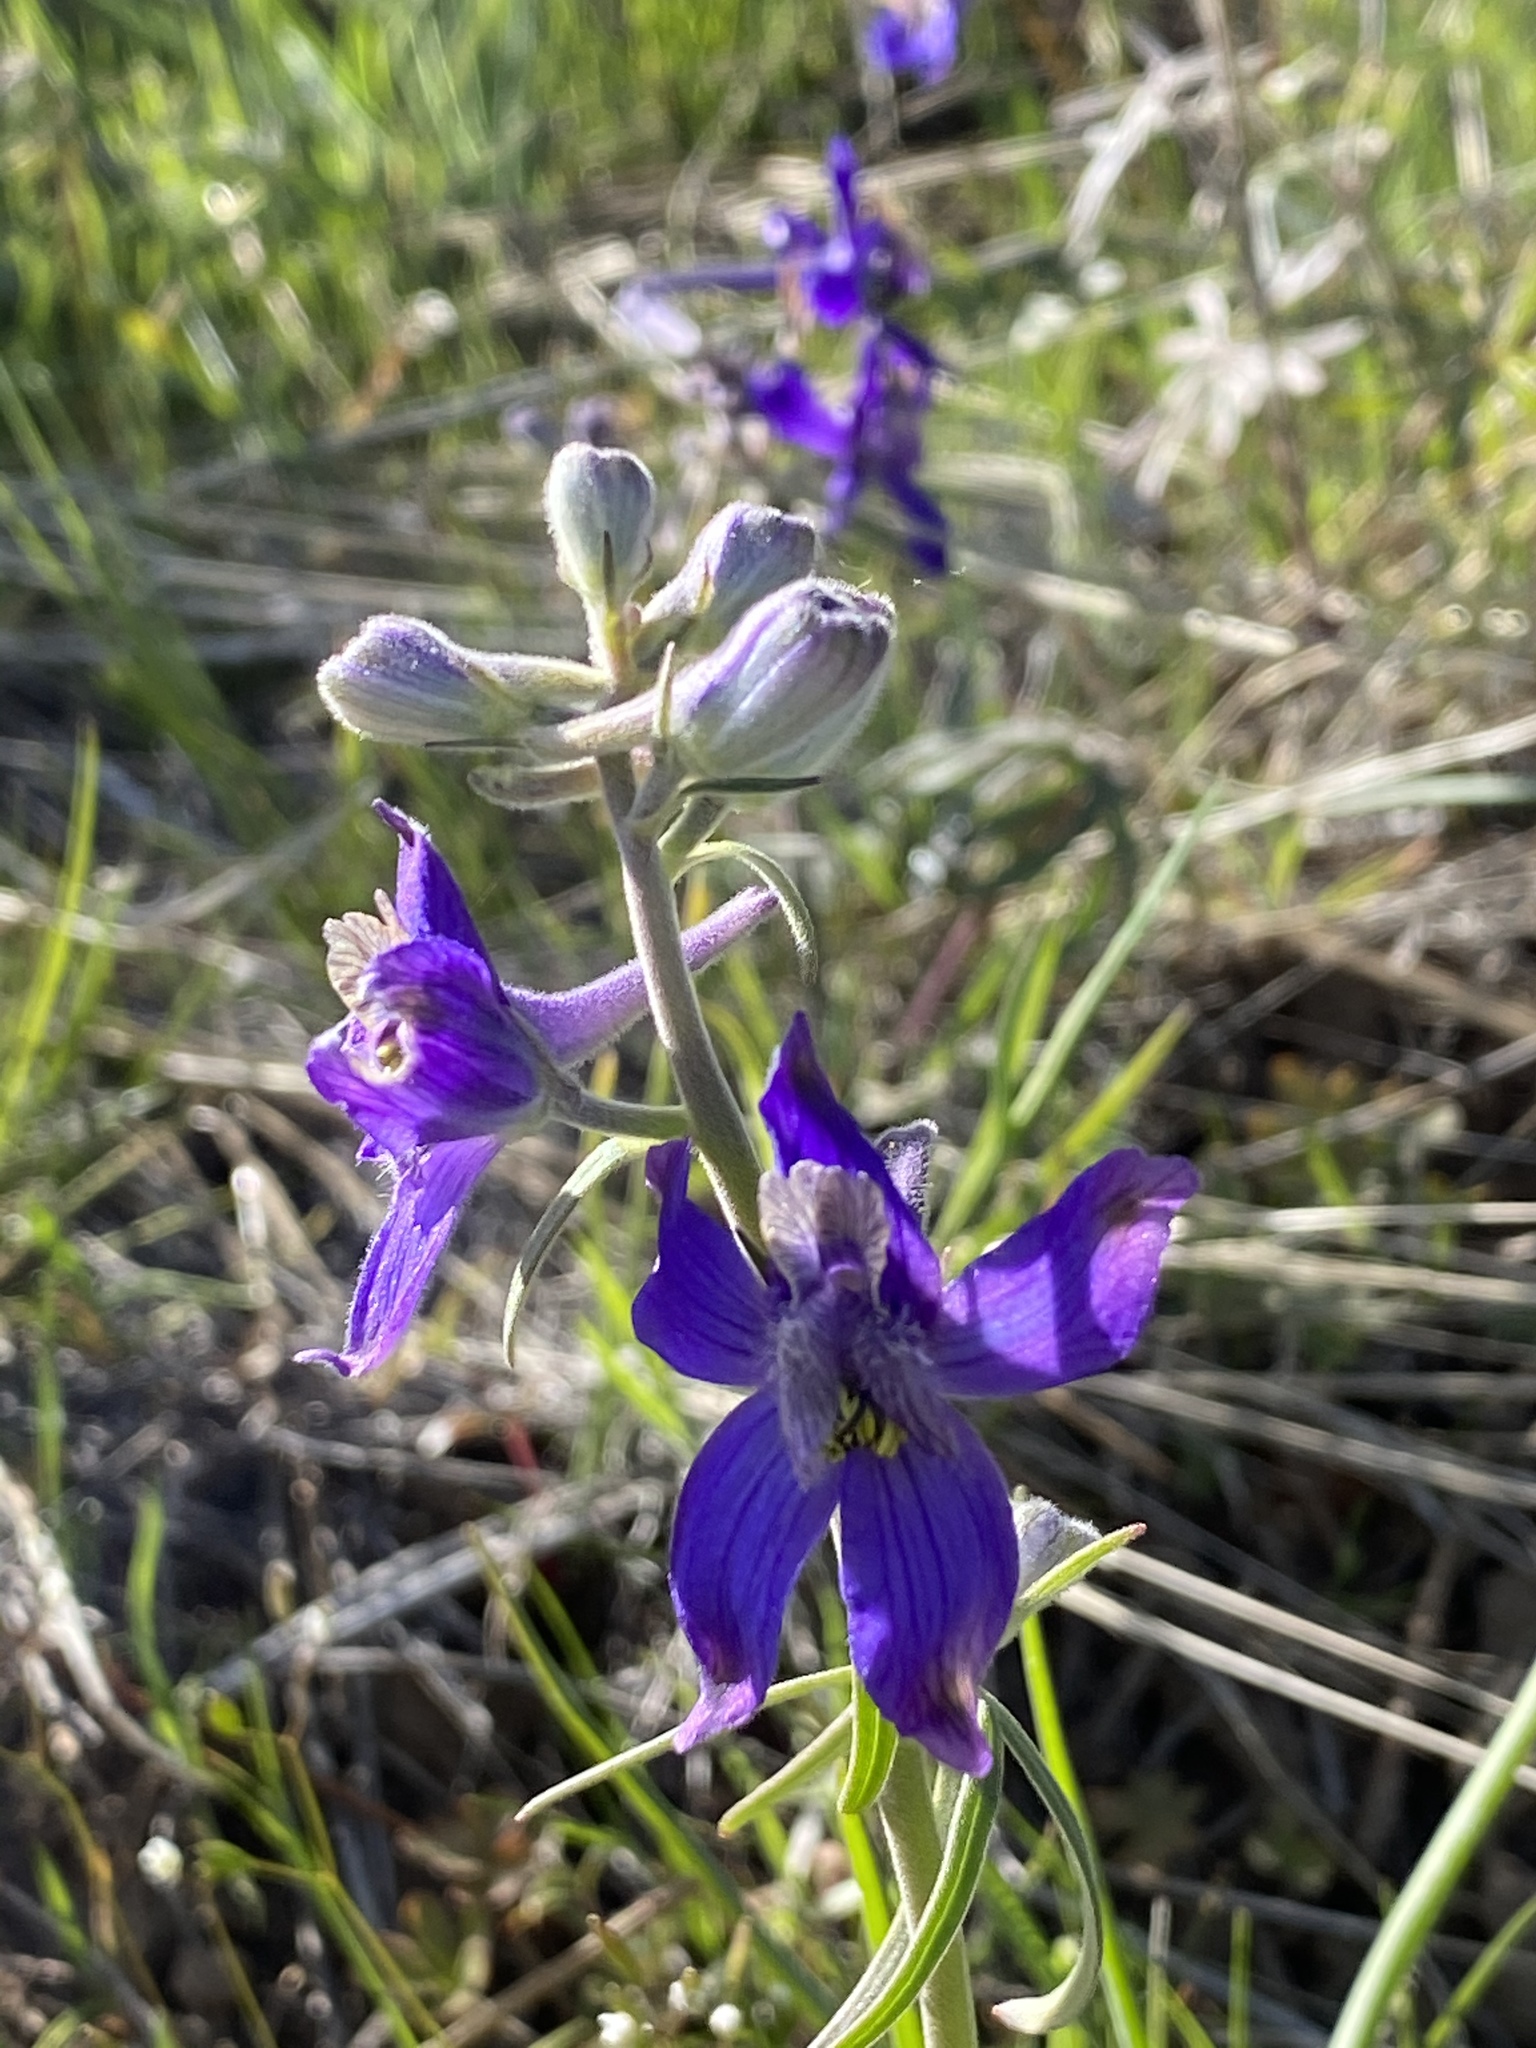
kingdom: Plantae
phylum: Tracheophyta
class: Magnoliopsida
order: Ranunculales
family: Ranunculaceae
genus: Delphinium
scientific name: Delphinium nuttallianum
